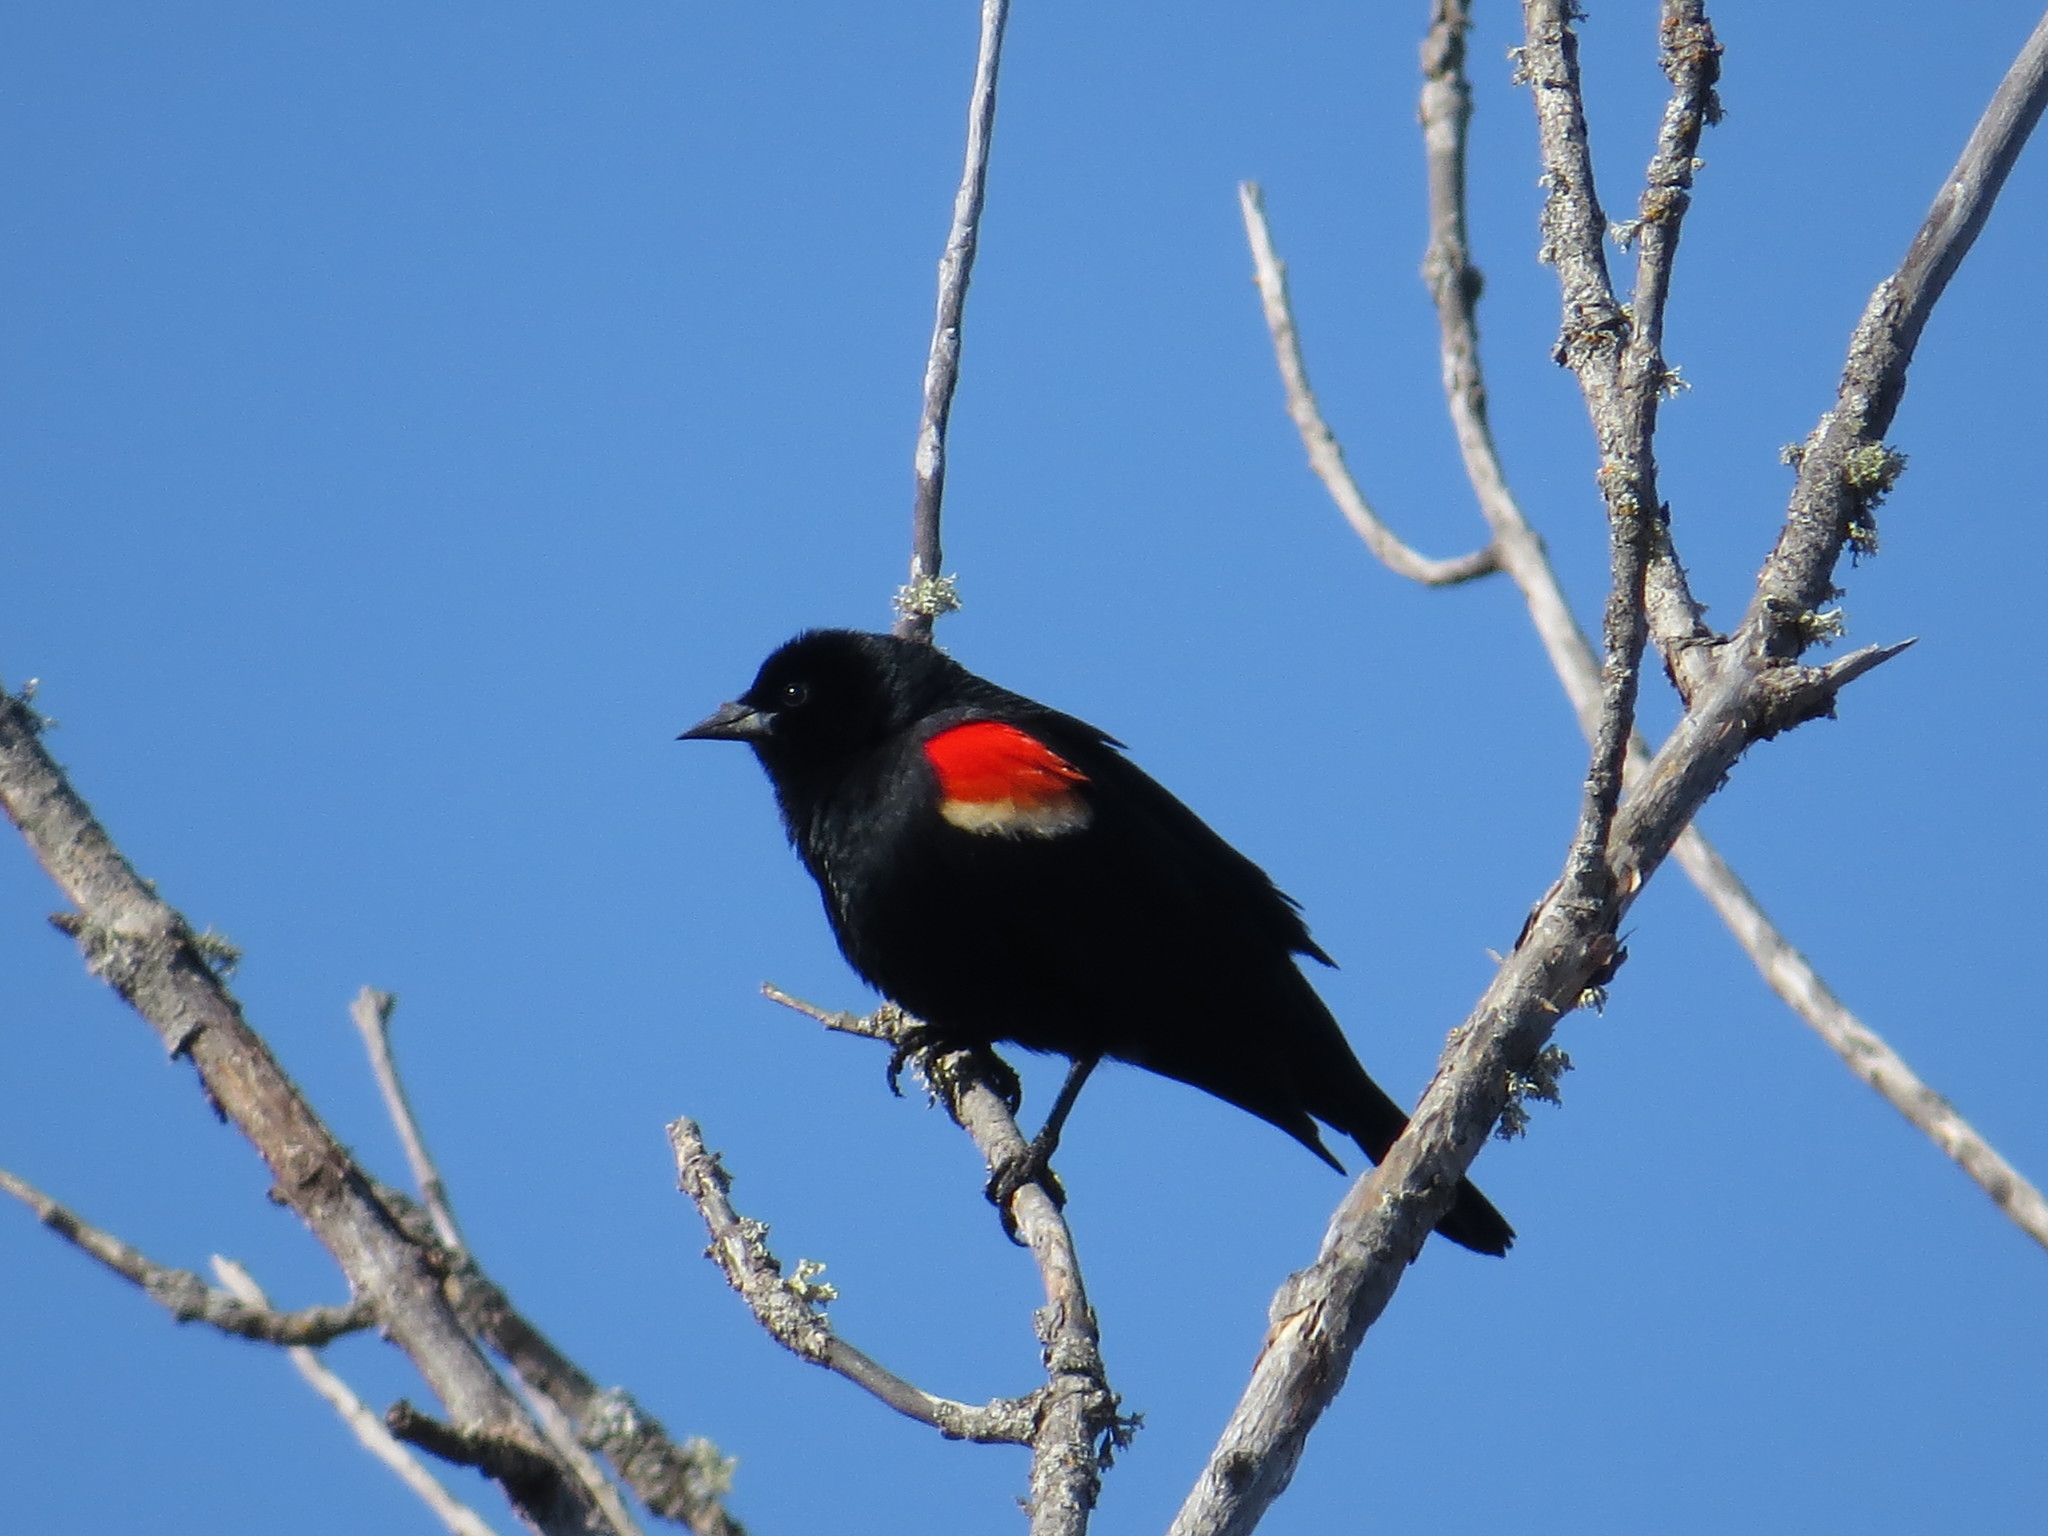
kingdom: Animalia
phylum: Chordata
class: Aves
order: Passeriformes
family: Icteridae
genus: Agelaius
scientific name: Agelaius phoeniceus
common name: Red-winged blackbird
